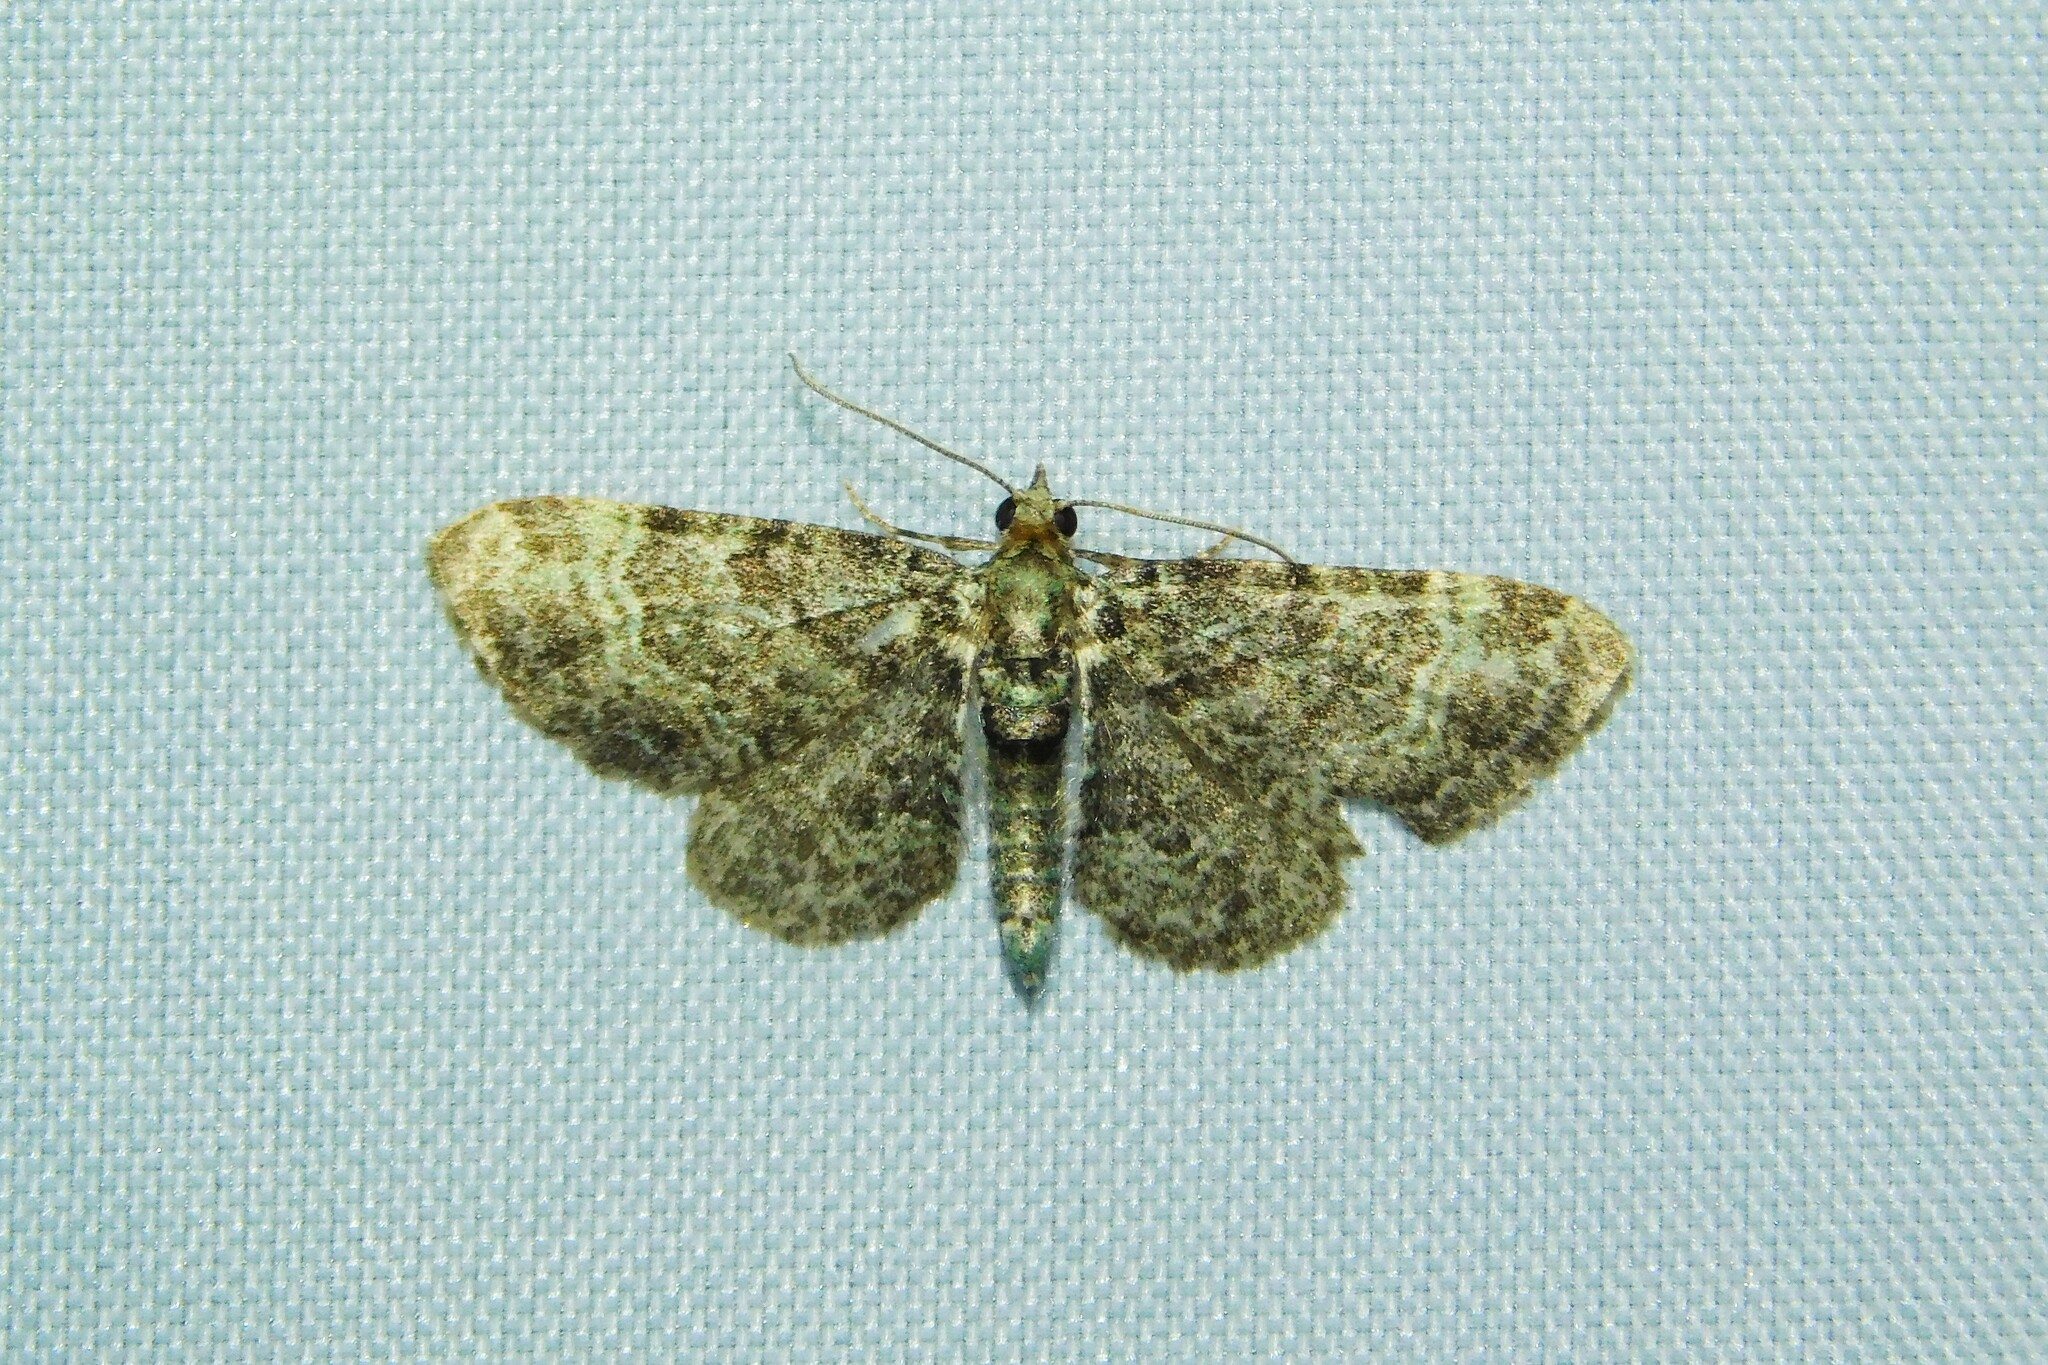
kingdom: Animalia
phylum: Arthropoda
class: Insecta
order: Lepidoptera
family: Geometridae
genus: Pasiphila
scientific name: Pasiphila rectangulata
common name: Green pug
